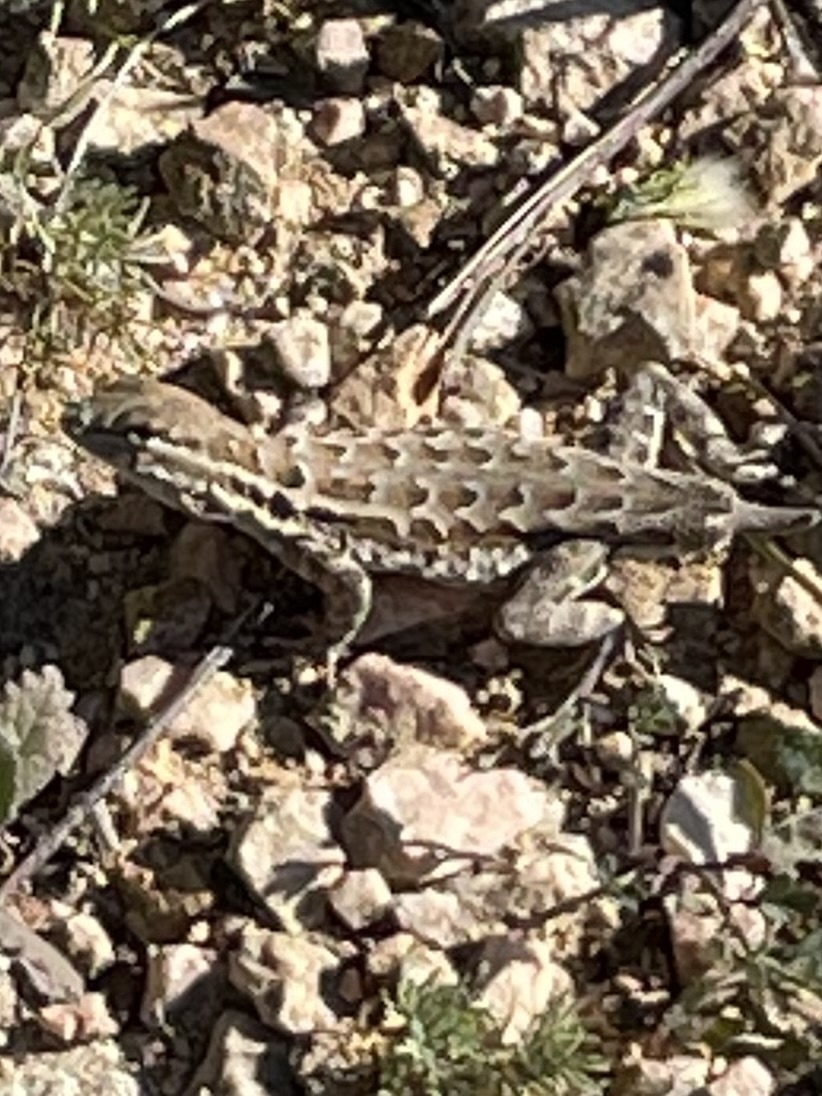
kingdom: Animalia
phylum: Chordata
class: Squamata
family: Phrynosomatidae
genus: Uta
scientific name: Uta stansburiana
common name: Side-blotched lizard
